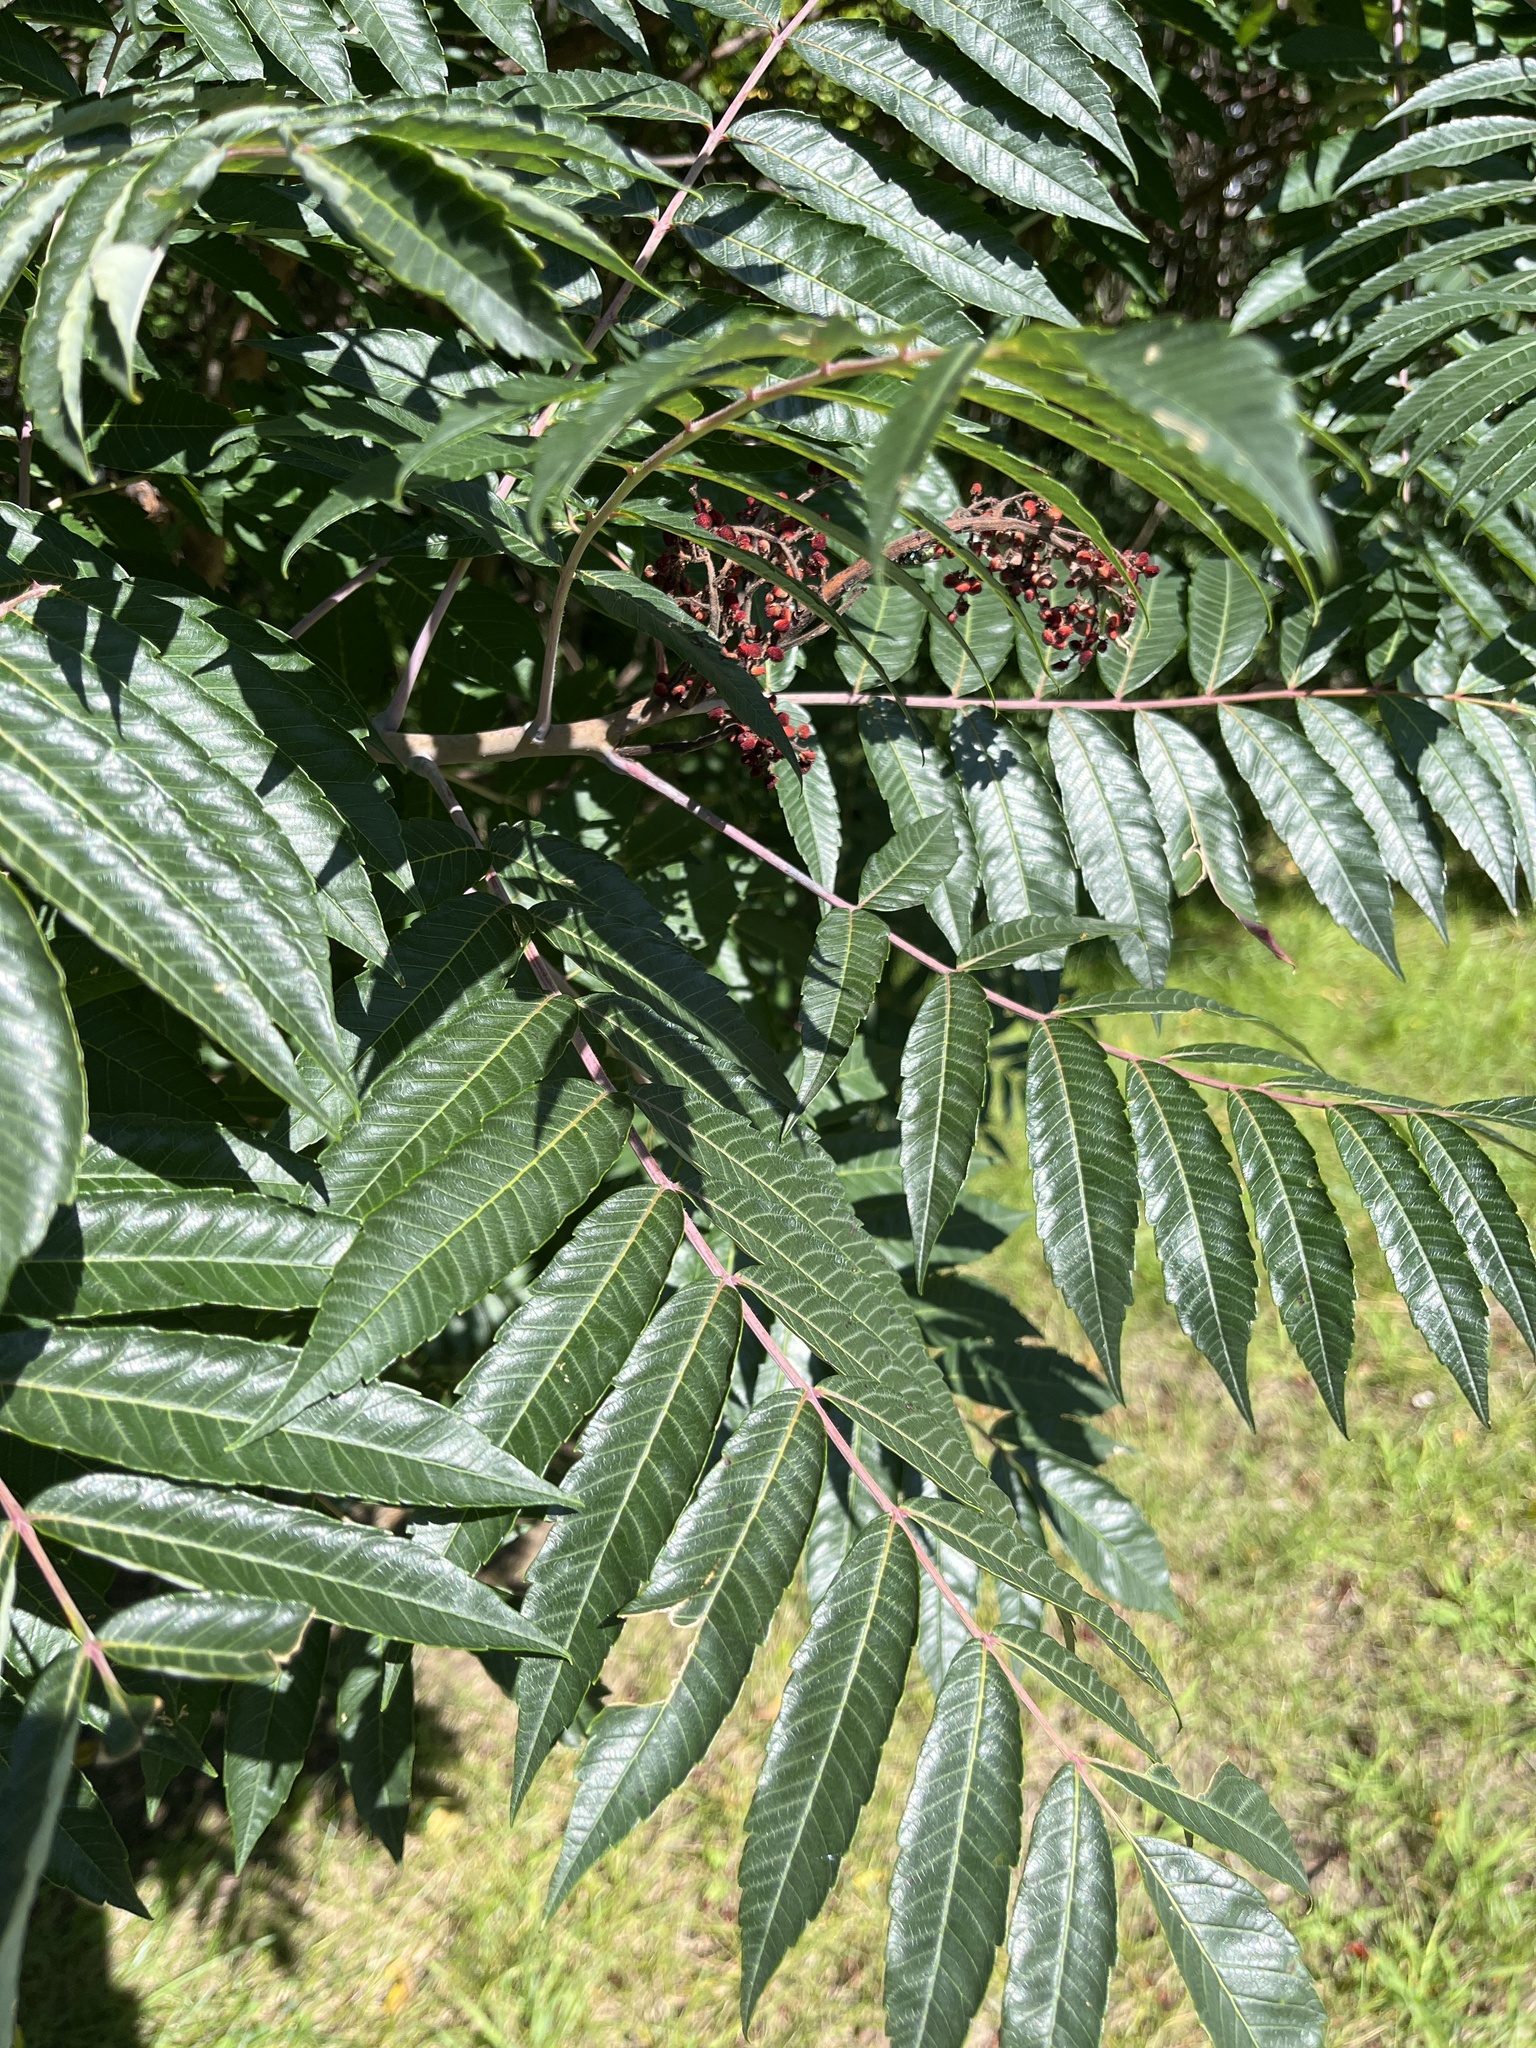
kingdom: Plantae
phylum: Tracheophyta
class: Magnoliopsida
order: Sapindales
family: Anacardiaceae
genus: Rhus
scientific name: Rhus glabra
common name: Scarlet sumac
